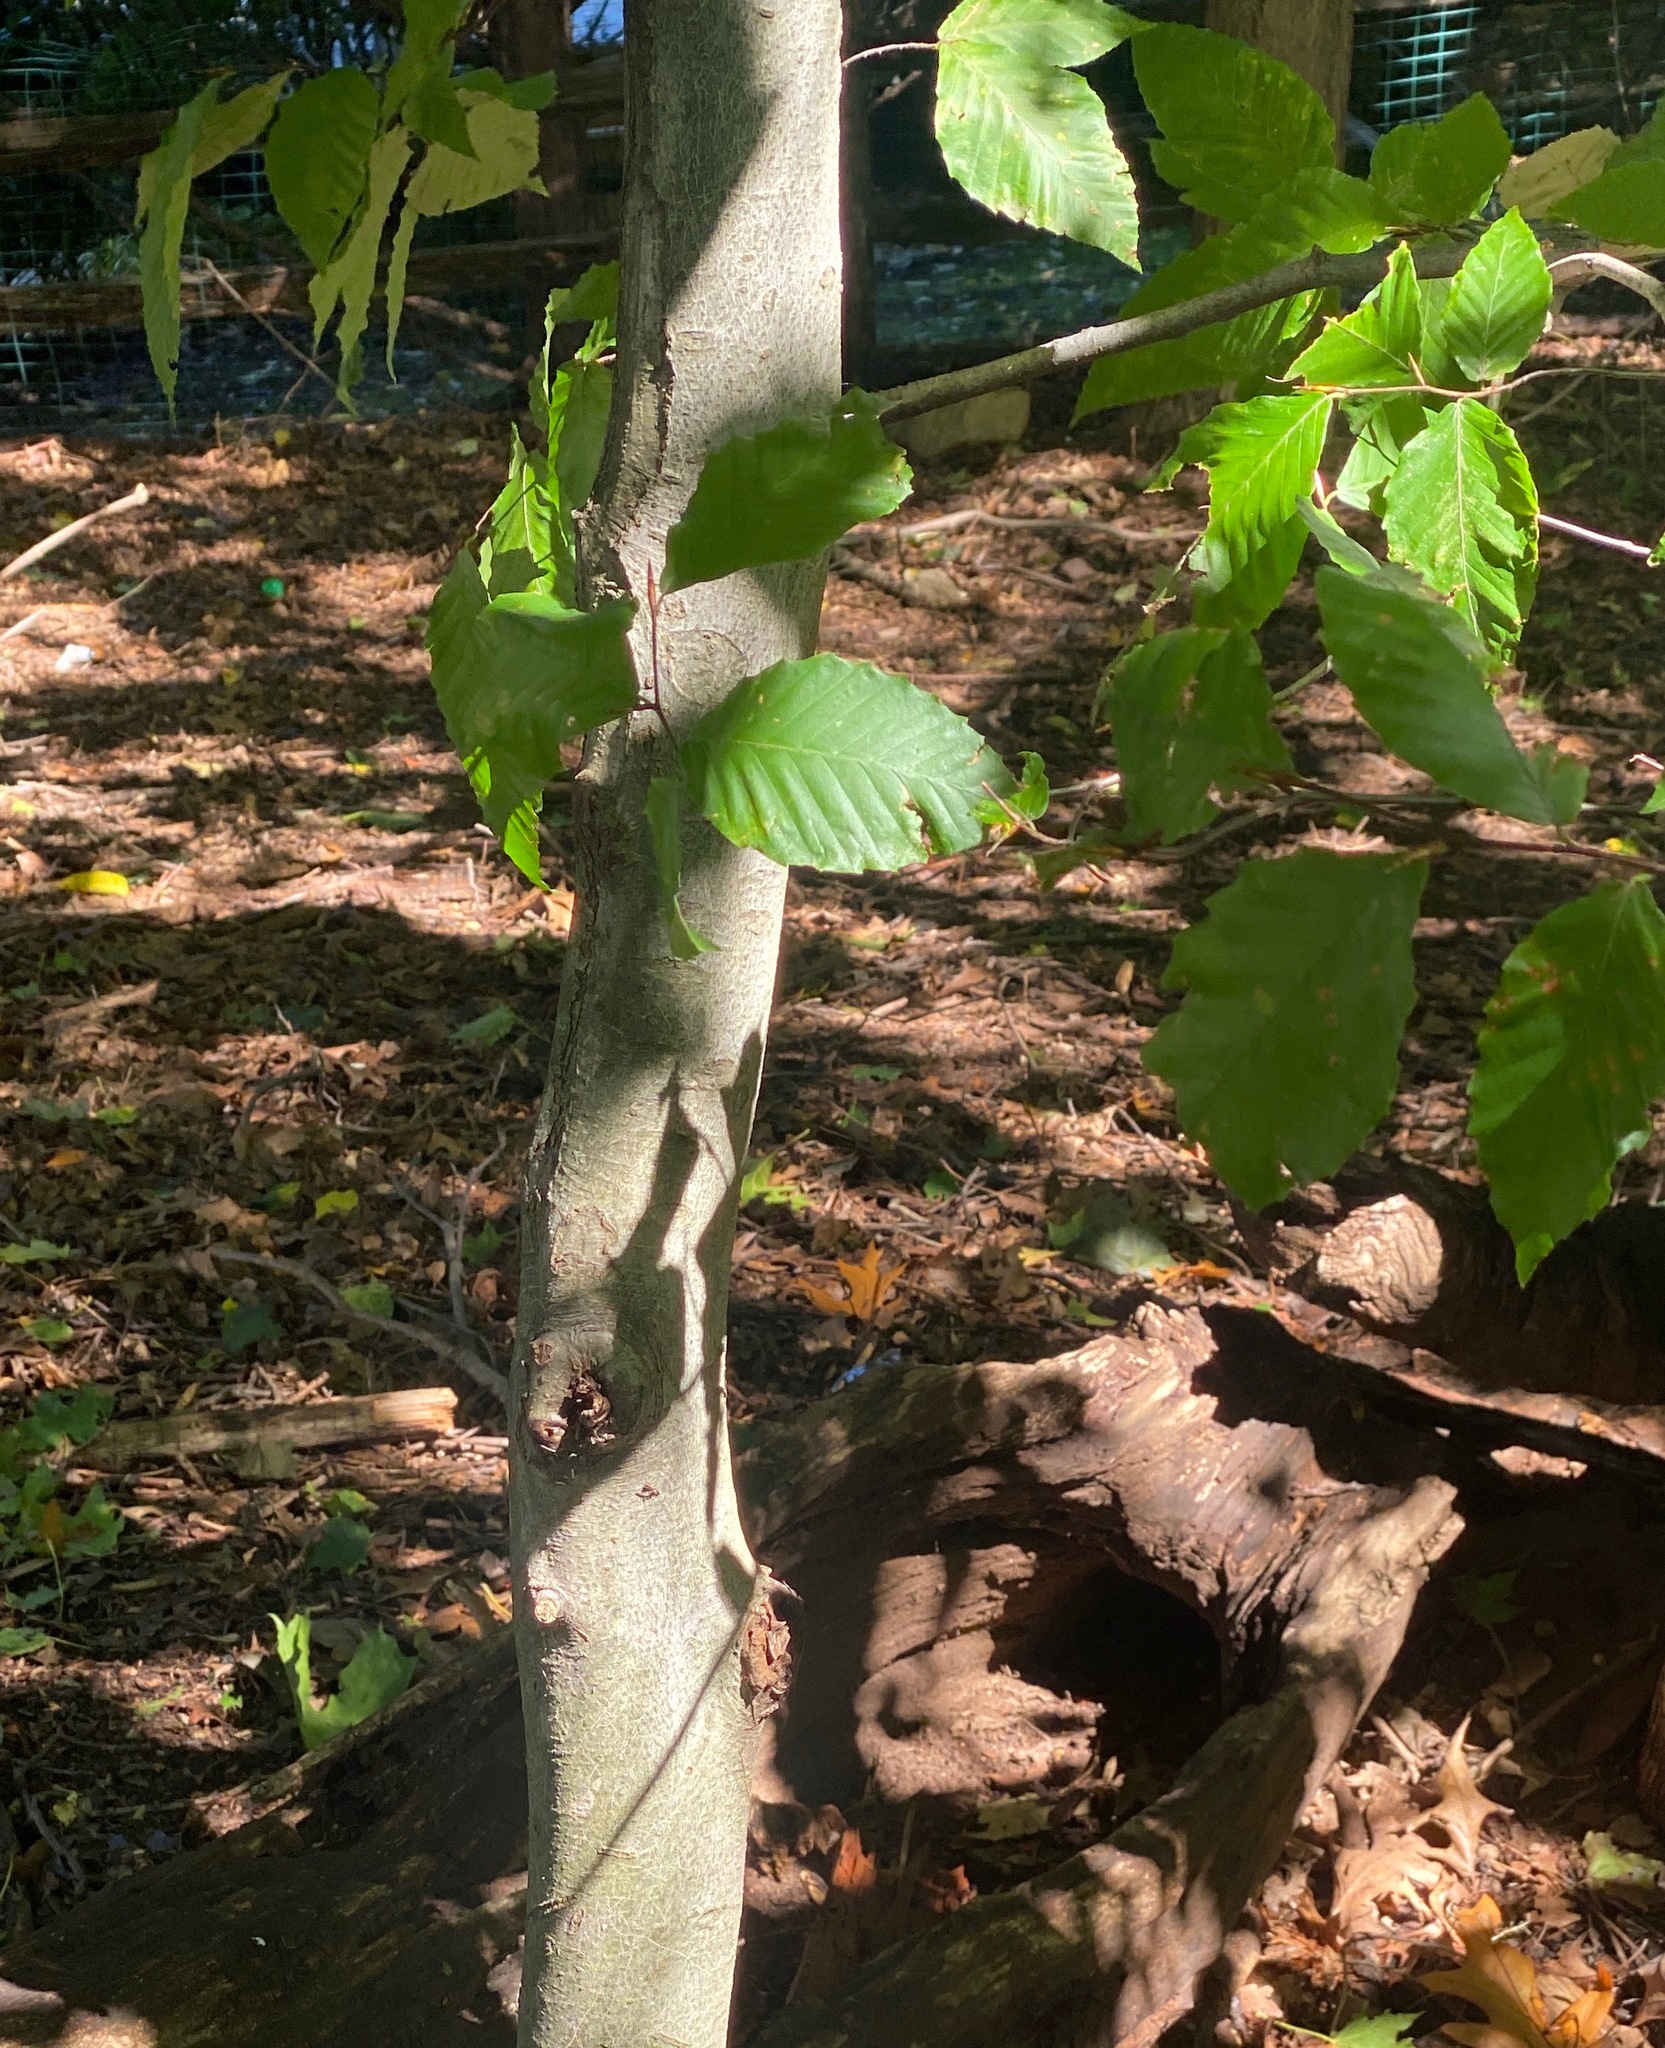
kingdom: Plantae
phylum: Tracheophyta
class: Magnoliopsida
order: Fagales
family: Fagaceae
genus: Fagus
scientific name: Fagus grandifolia
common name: American beech
